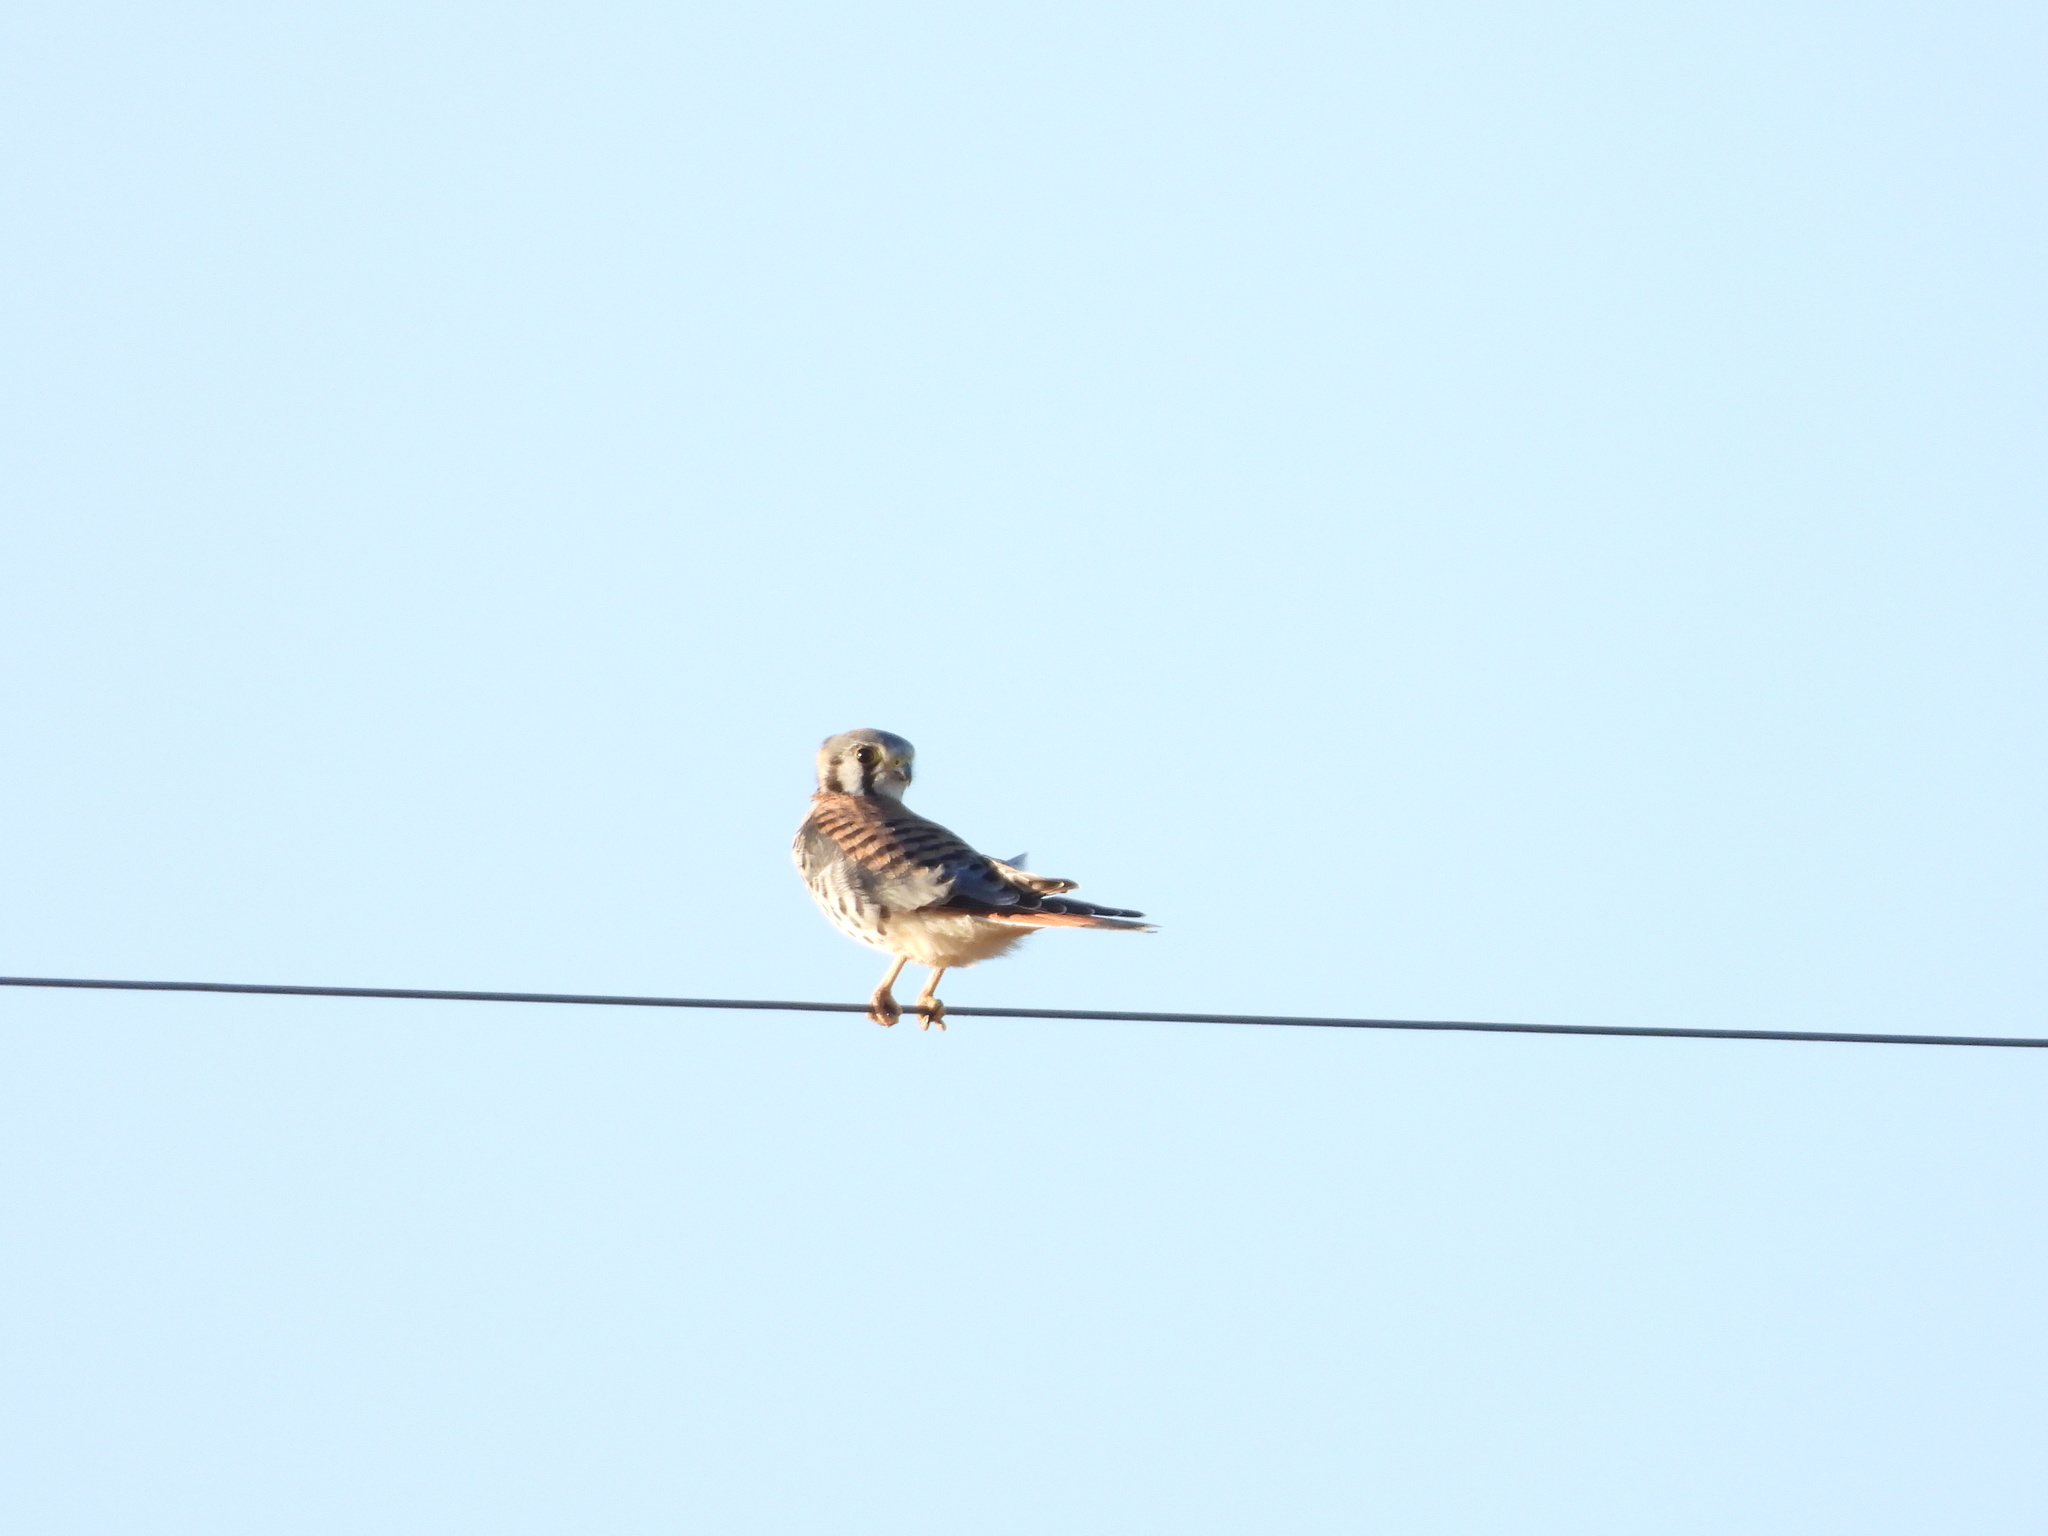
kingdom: Animalia
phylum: Chordata
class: Aves
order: Falconiformes
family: Falconidae
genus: Falco
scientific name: Falco sparverius
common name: American kestrel
